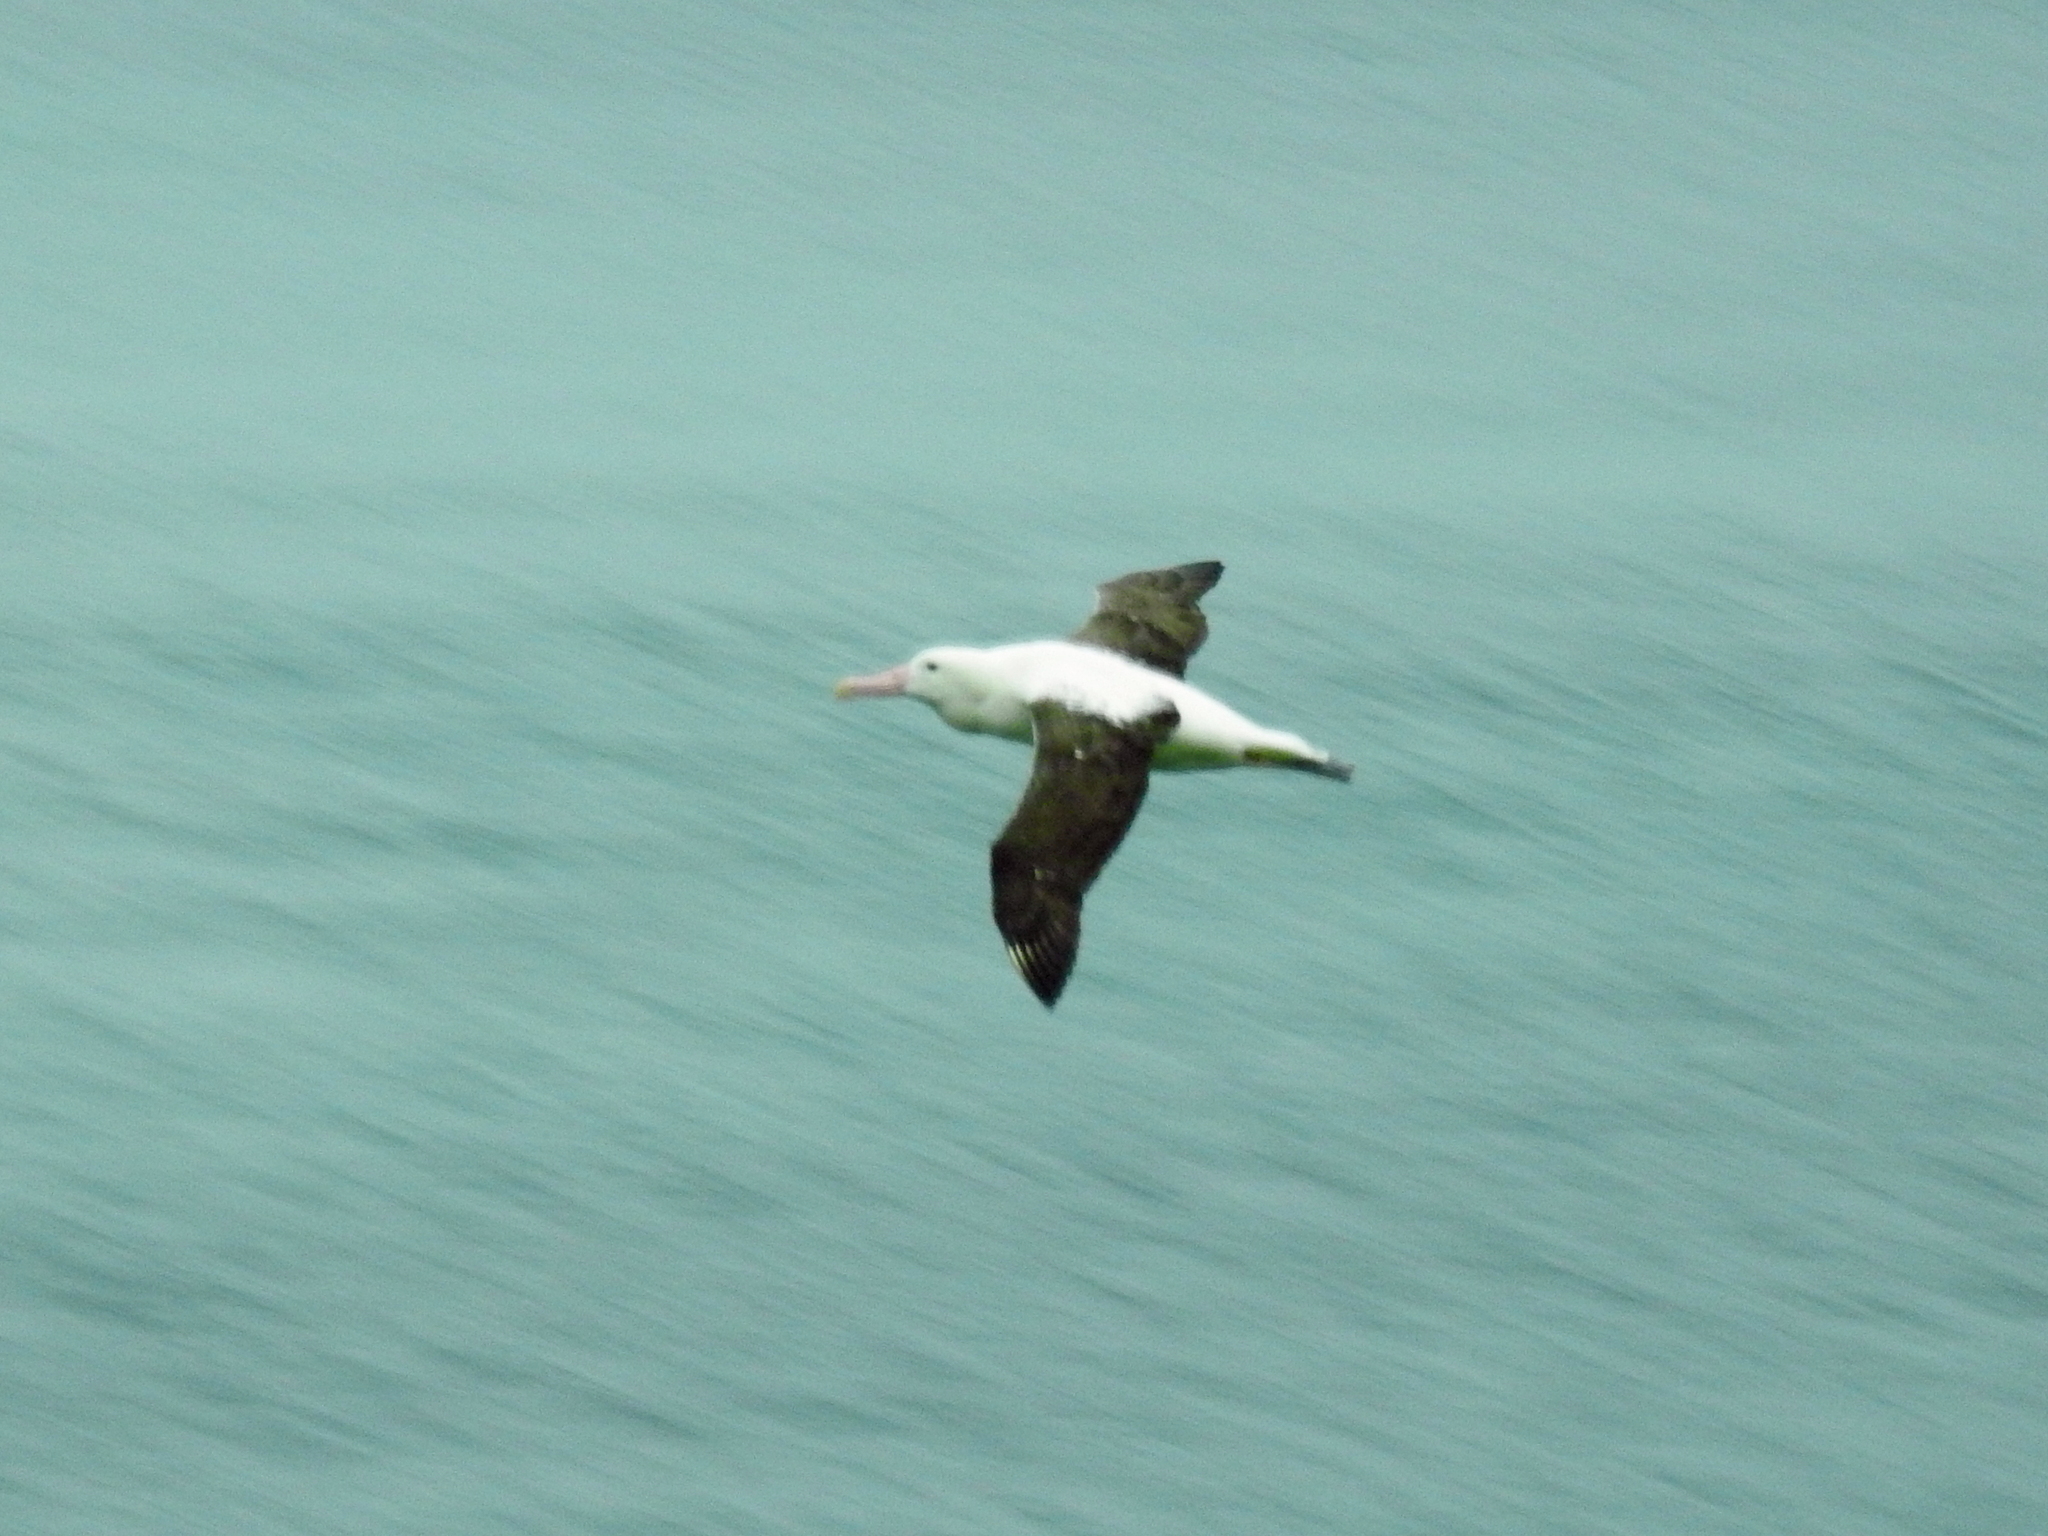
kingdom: Animalia
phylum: Chordata
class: Aves
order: Procellariiformes
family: Diomedeidae
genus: Diomedea
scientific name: Diomedea sanfordi
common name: Northern royal albatross
